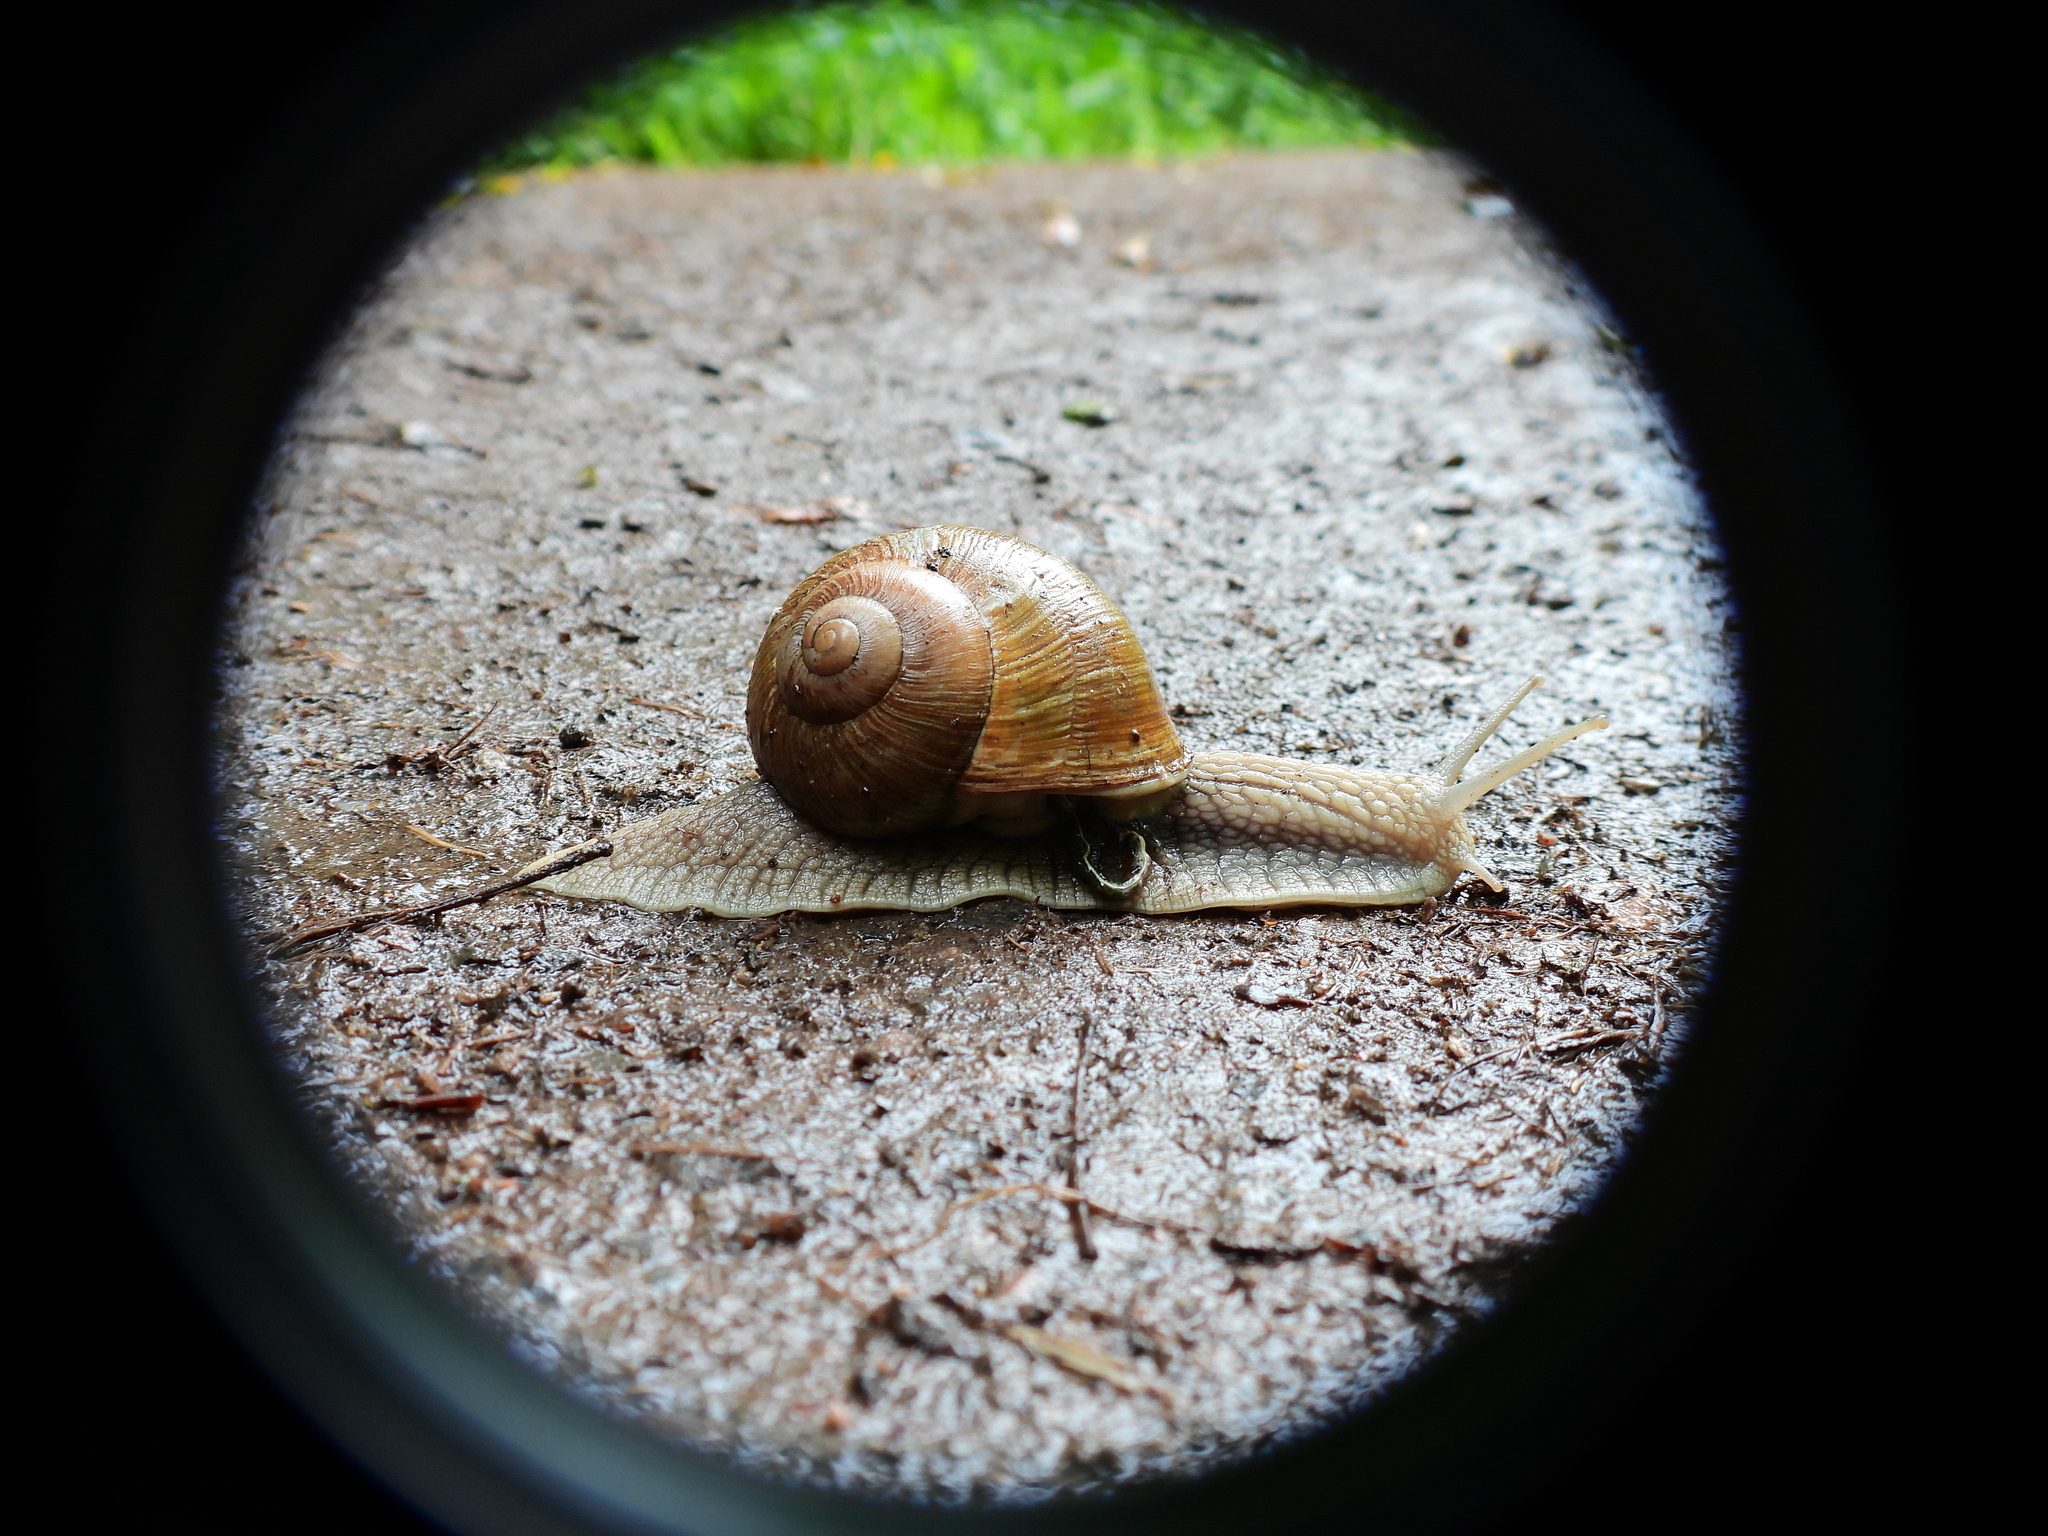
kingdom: Animalia
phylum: Mollusca
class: Gastropoda
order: Stylommatophora
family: Helicidae
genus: Helix
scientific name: Helix pomatia
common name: Roman snail
